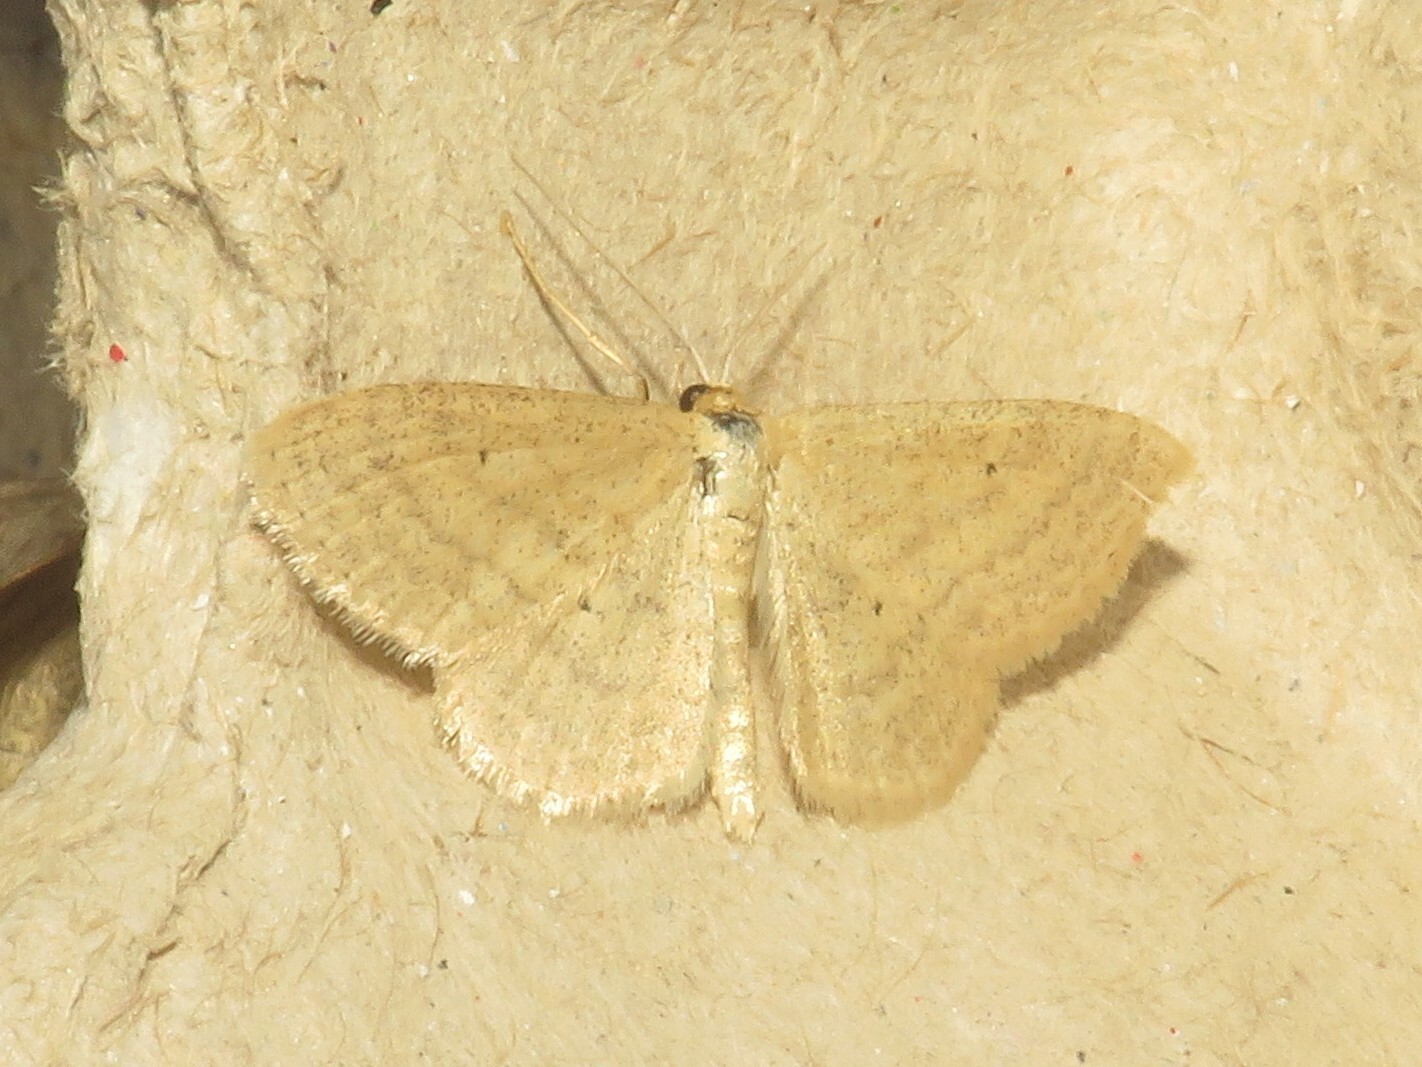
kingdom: Animalia
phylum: Arthropoda
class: Insecta
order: Lepidoptera
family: Geometridae
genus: Scopula
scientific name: Scopula inductata
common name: Soft-lined wave
